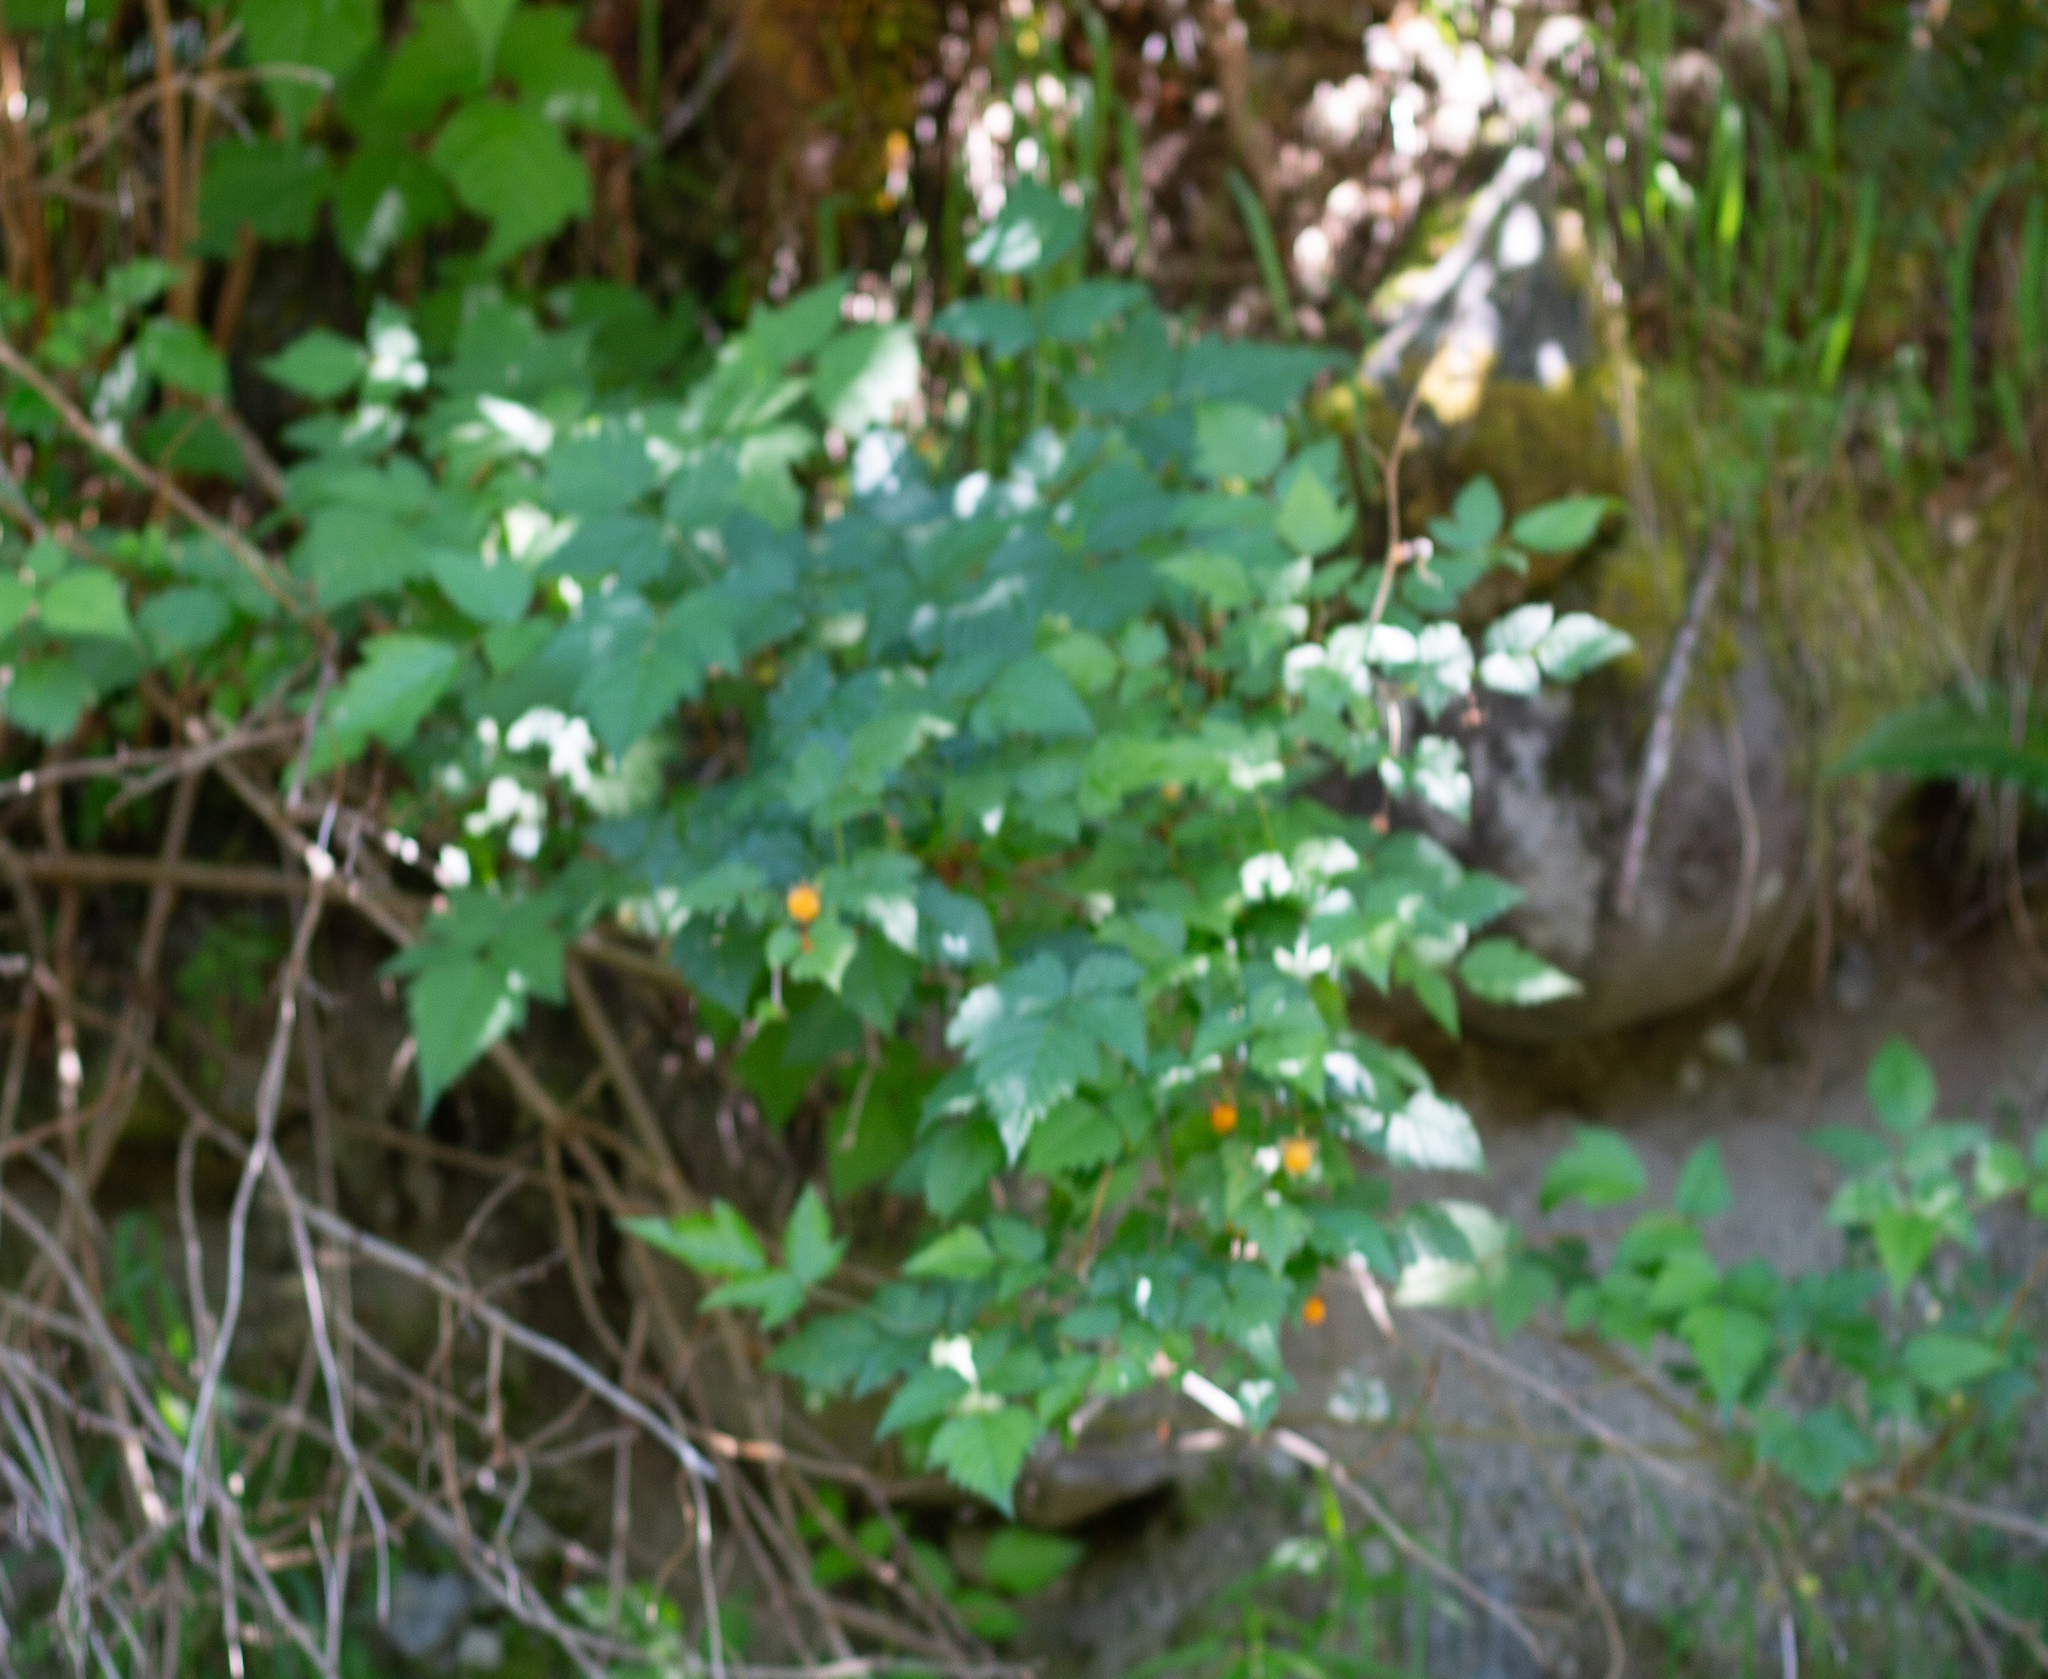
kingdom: Plantae
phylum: Tracheophyta
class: Magnoliopsida
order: Rosales
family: Rosaceae
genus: Rubus
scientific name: Rubus spectabilis
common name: Salmonberry
